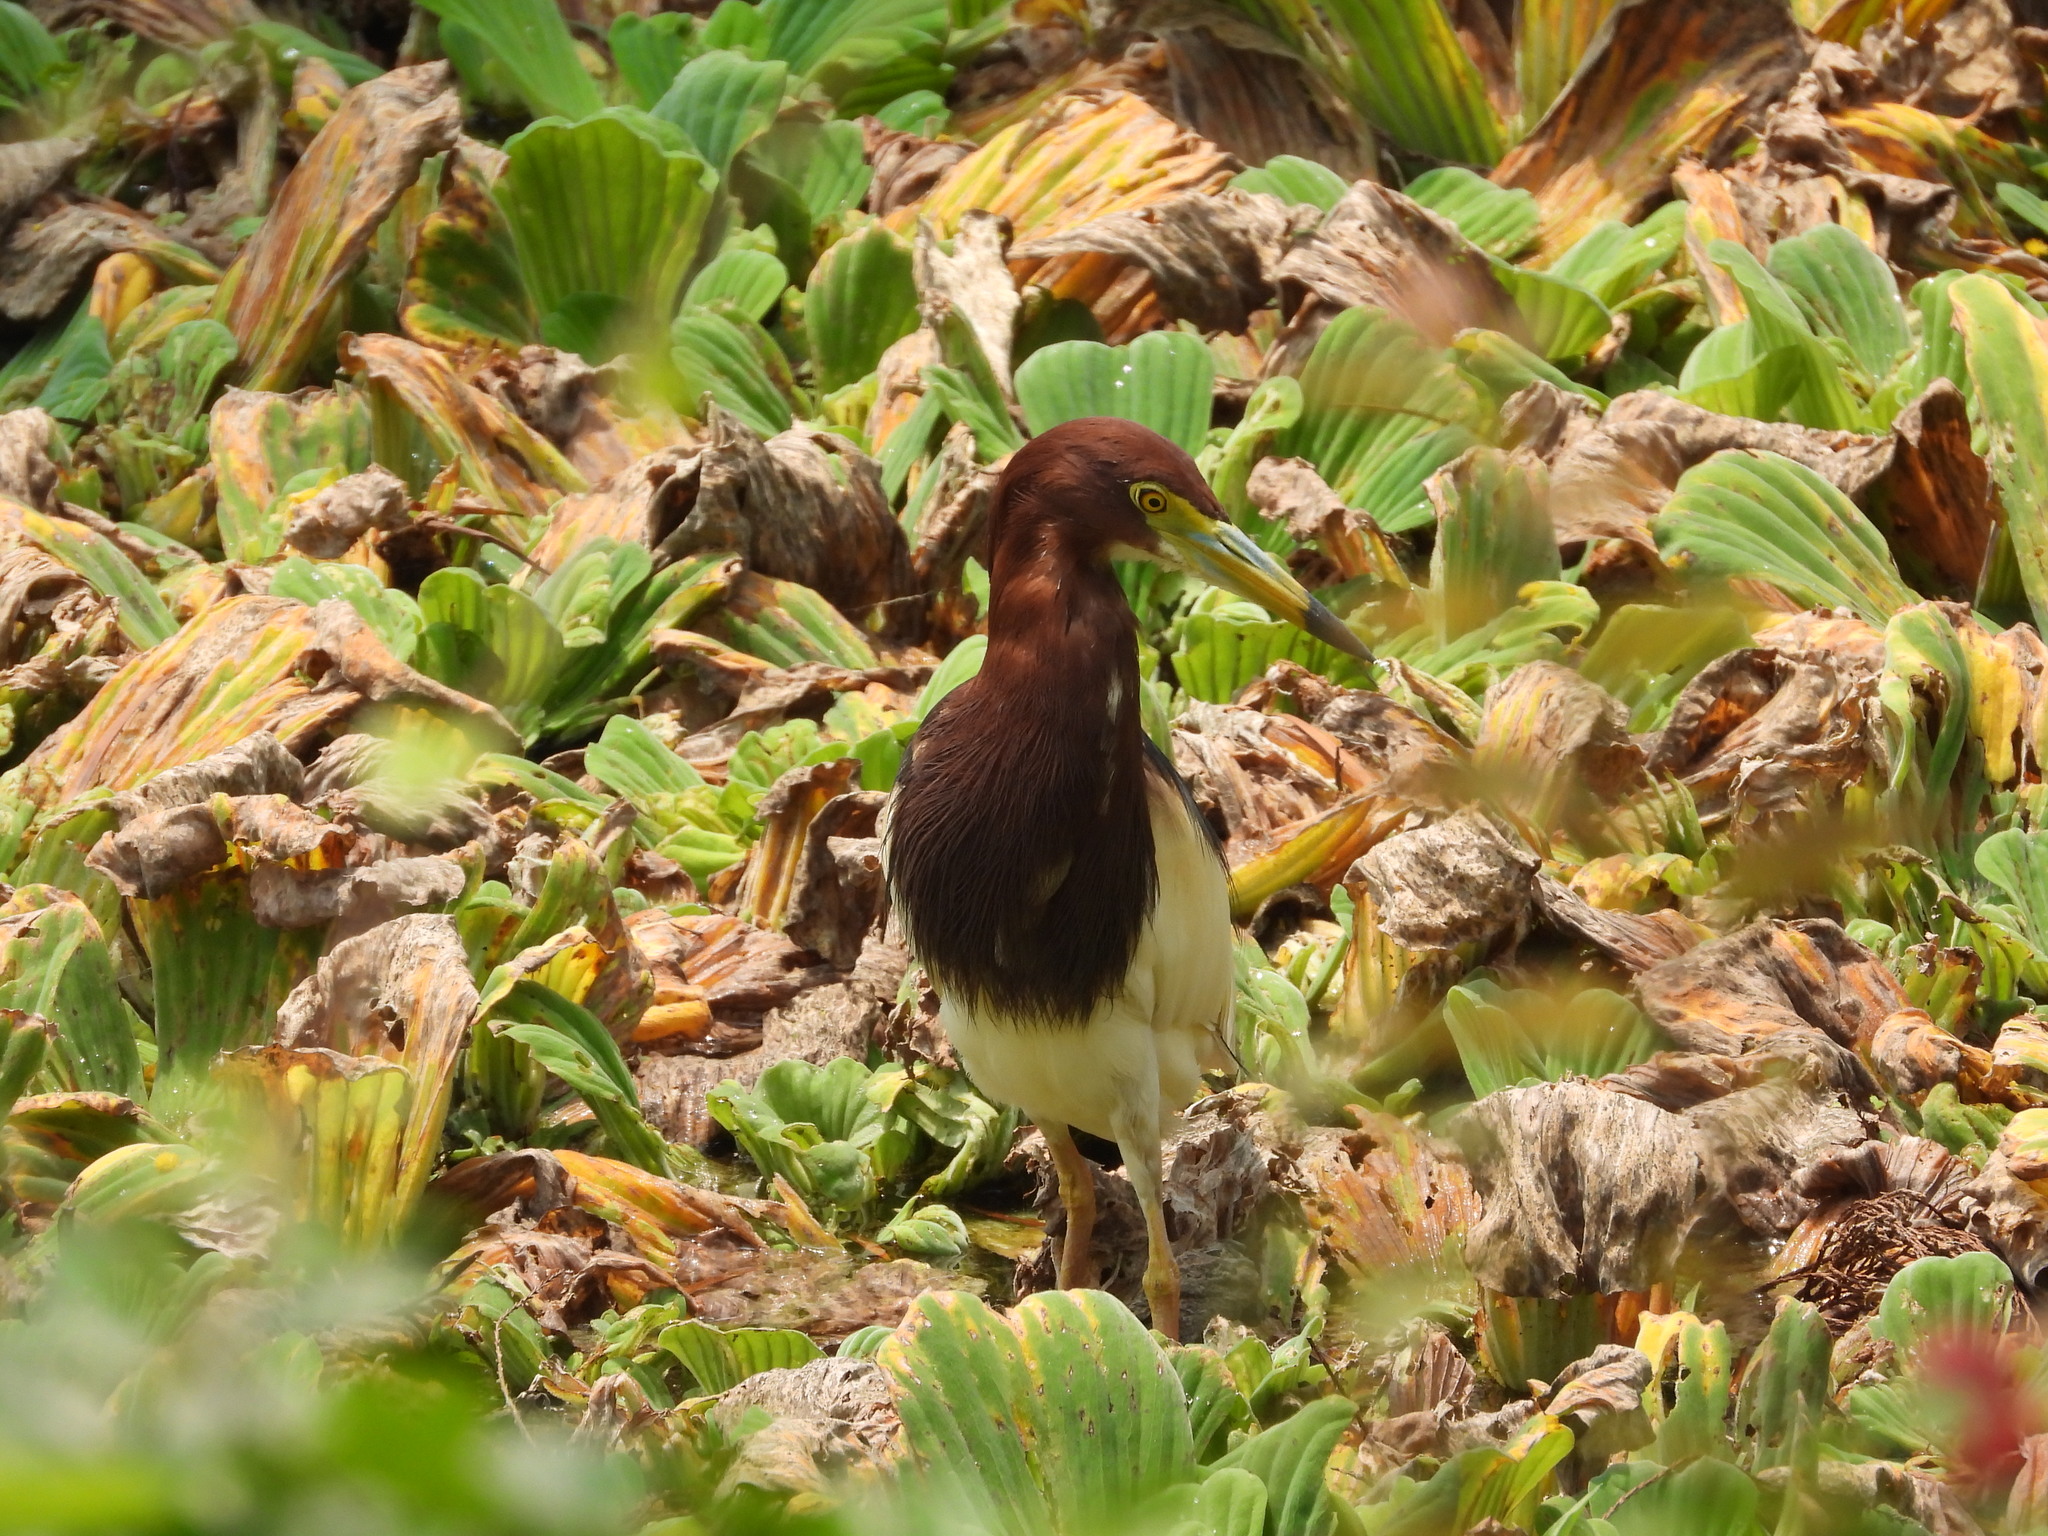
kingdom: Animalia
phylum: Chordata
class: Aves
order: Pelecaniformes
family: Ardeidae
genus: Ardeola
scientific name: Ardeola bacchus
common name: Chinese pond heron
